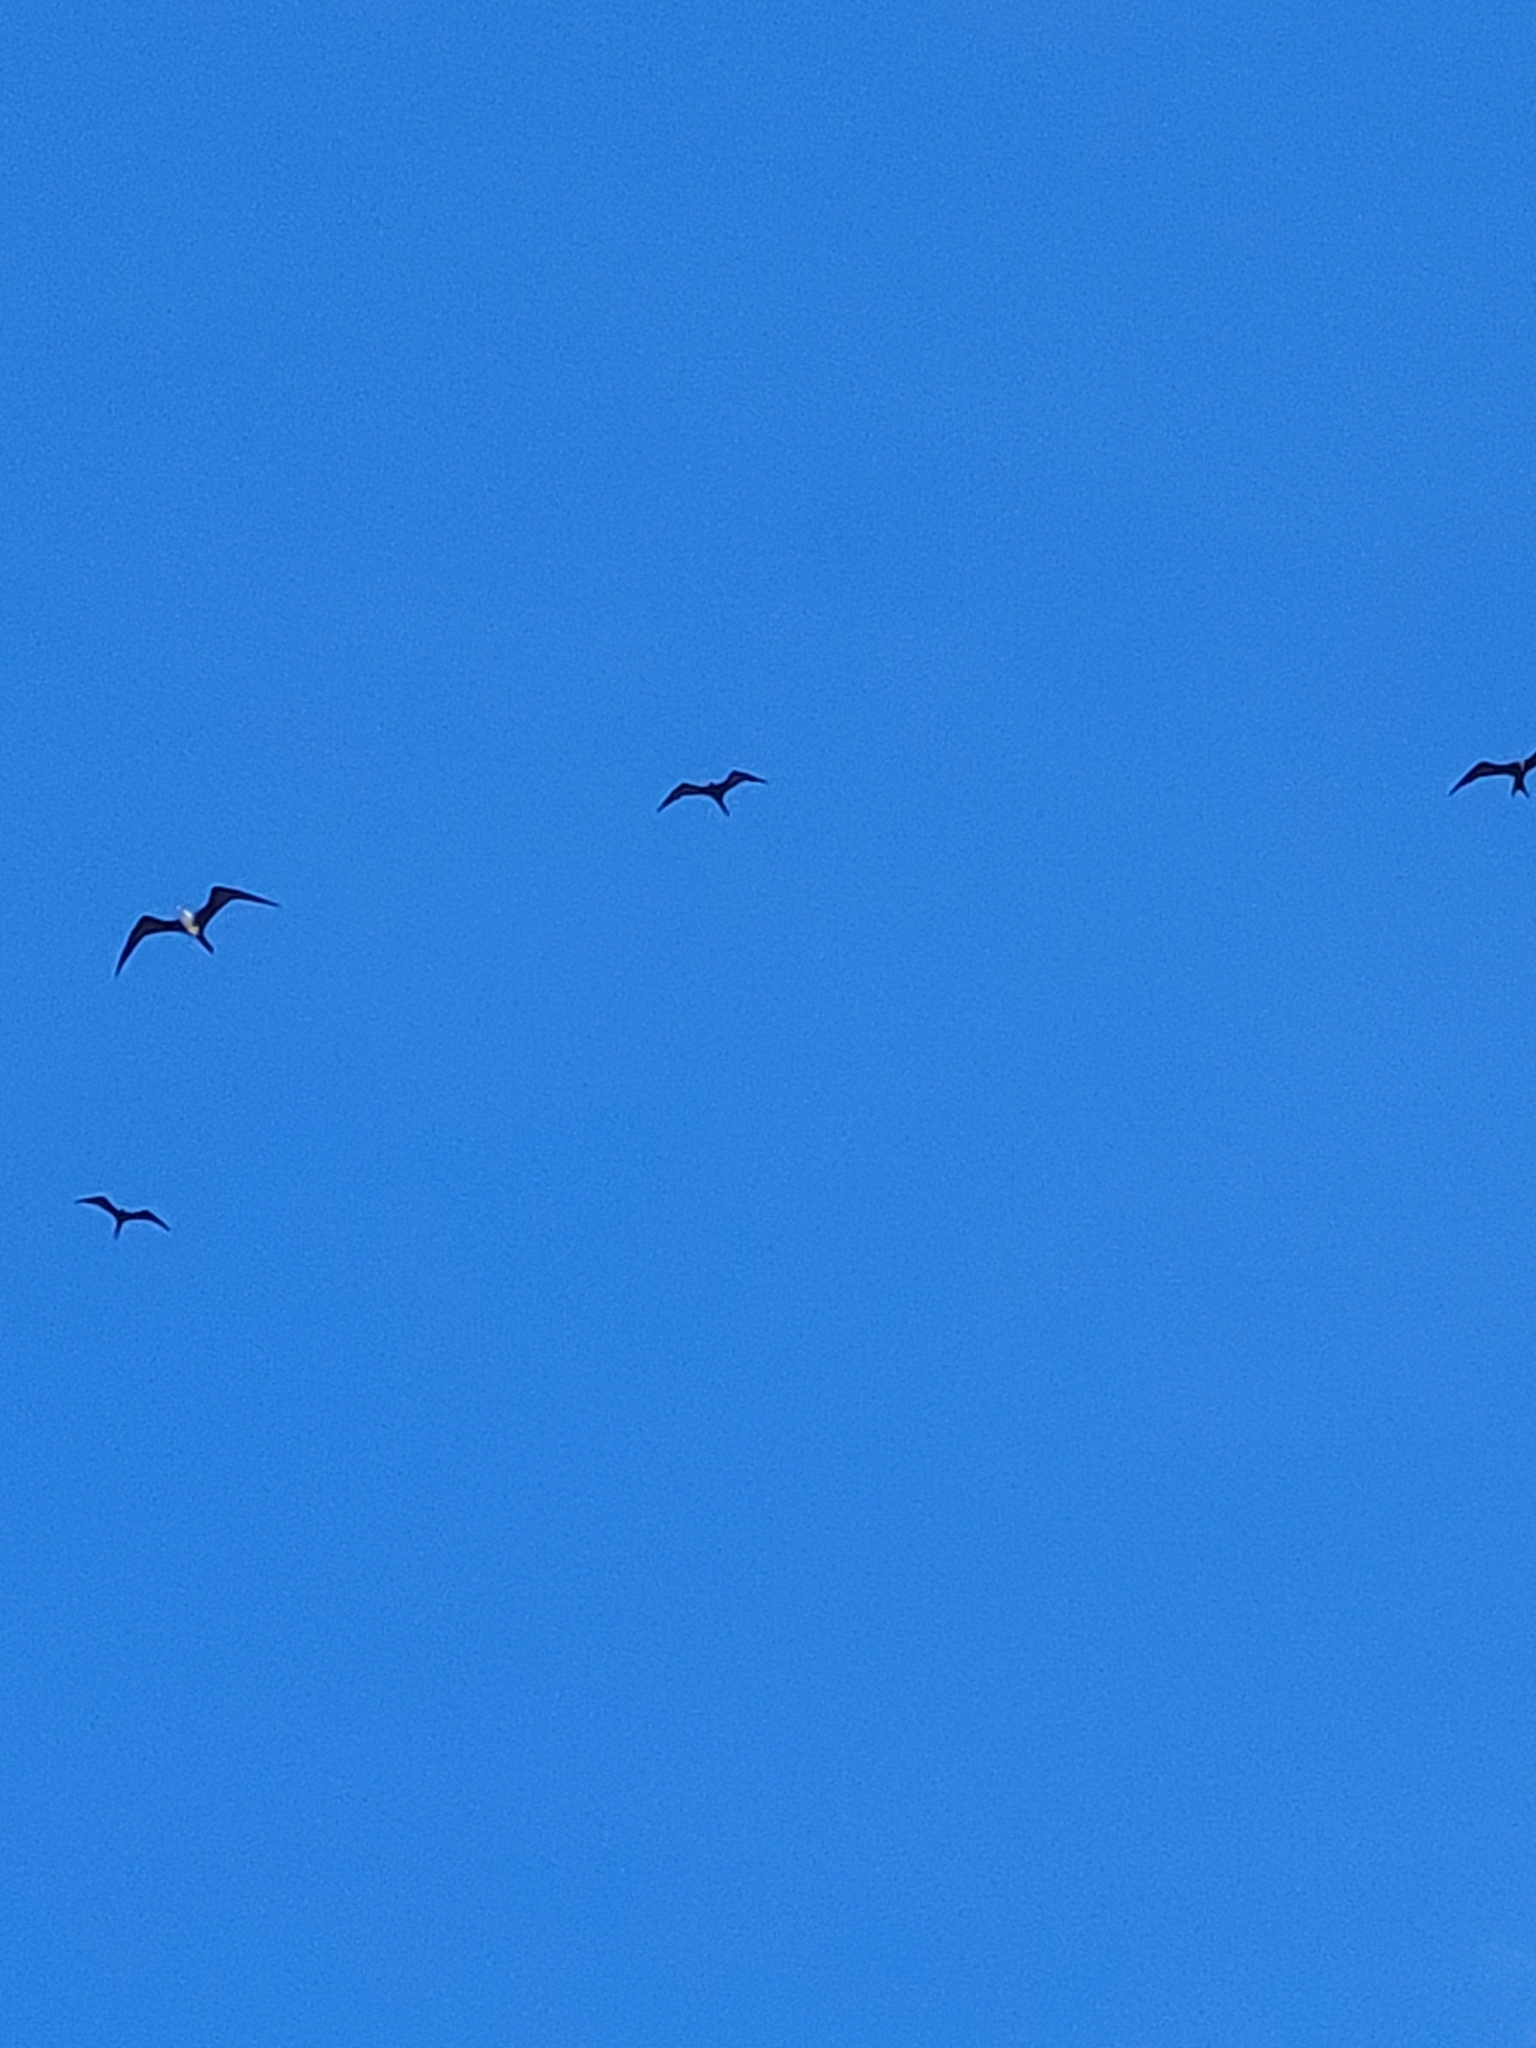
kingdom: Animalia
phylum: Chordata
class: Aves
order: Suliformes
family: Fregatidae
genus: Fregata
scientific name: Fregata magnificens
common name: Magnificent frigatebird
